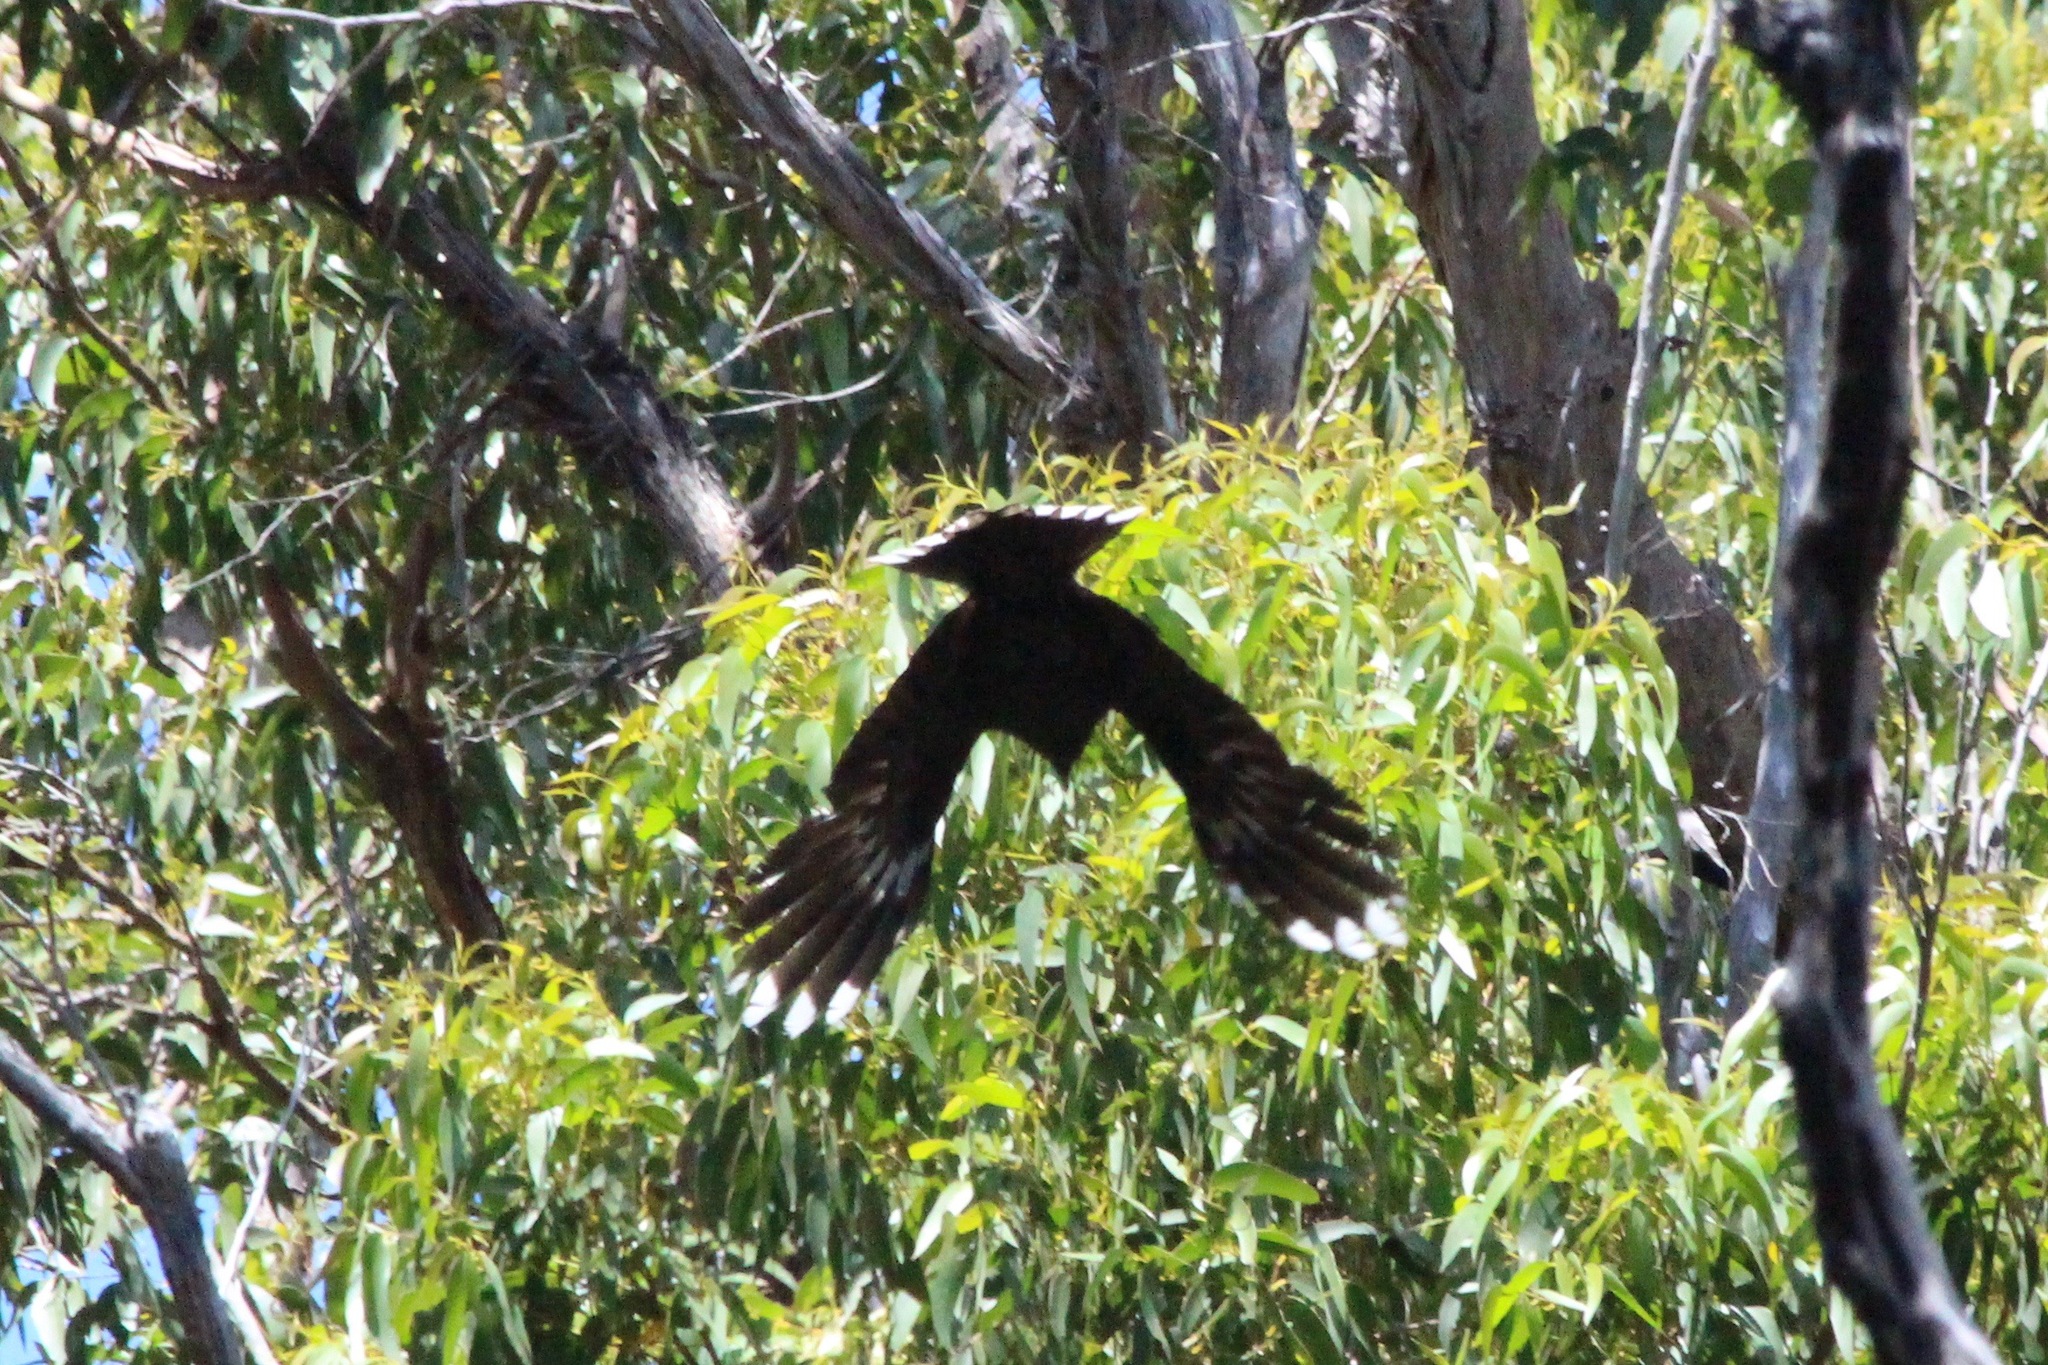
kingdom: Animalia
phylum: Chordata
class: Aves
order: Passeriformes
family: Cracticidae
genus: Strepera
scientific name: Strepera fuliginosa
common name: Black currawong
